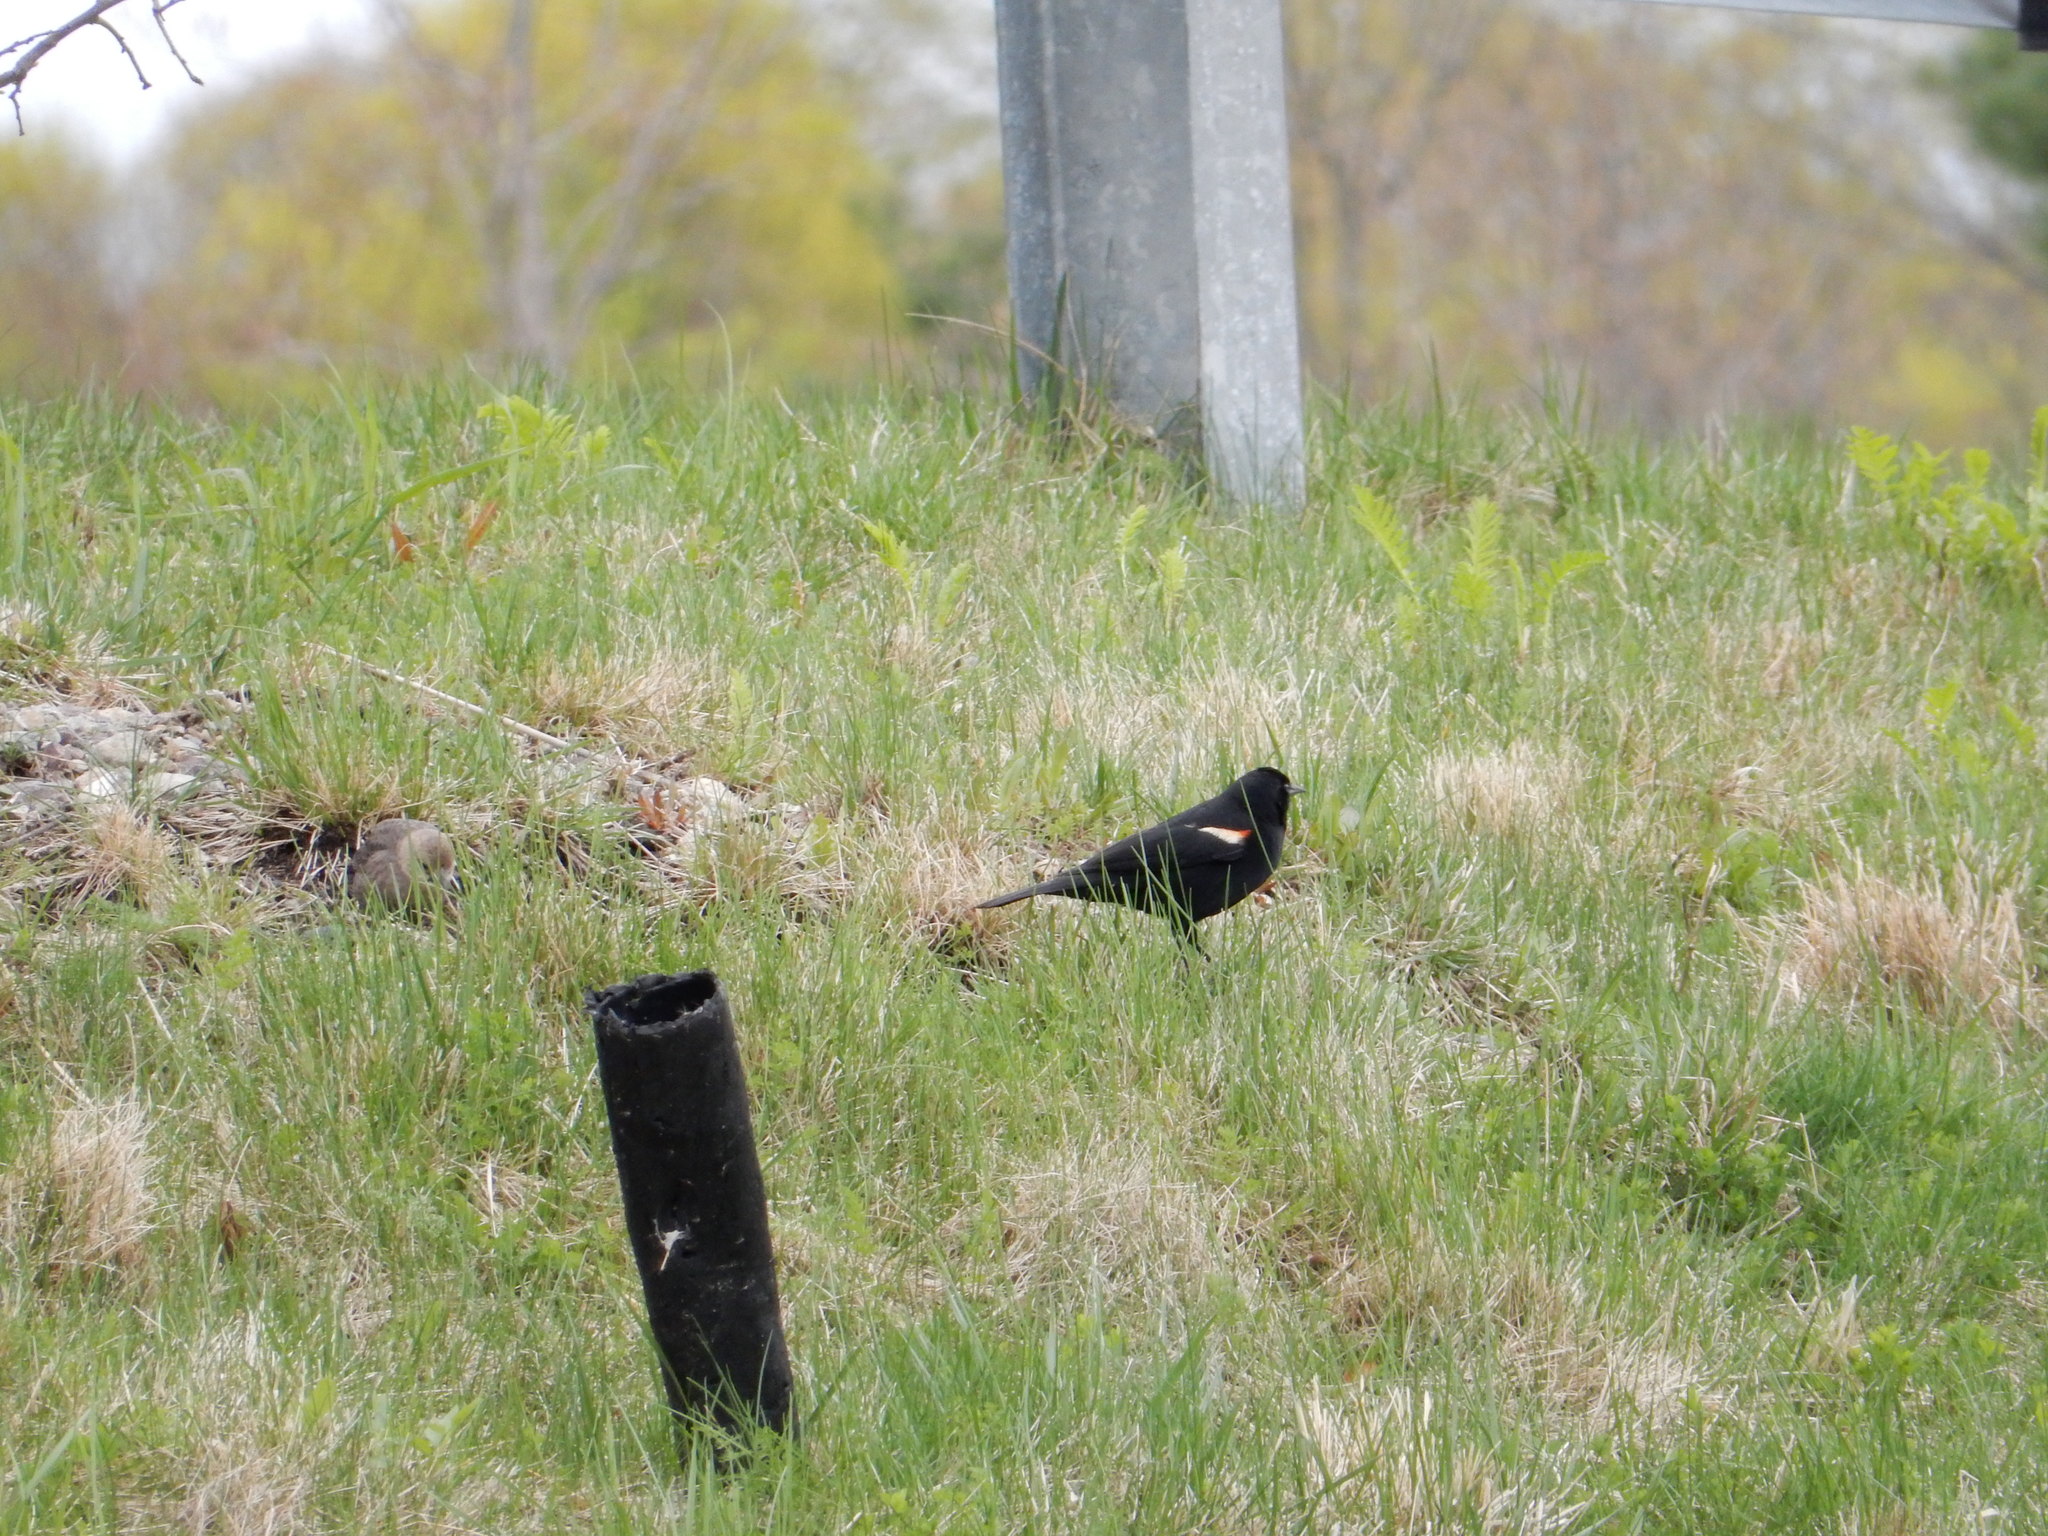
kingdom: Animalia
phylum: Chordata
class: Aves
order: Passeriformes
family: Icteridae
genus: Agelaius
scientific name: Agelaius phoeniceus
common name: Red-winged blackbird
